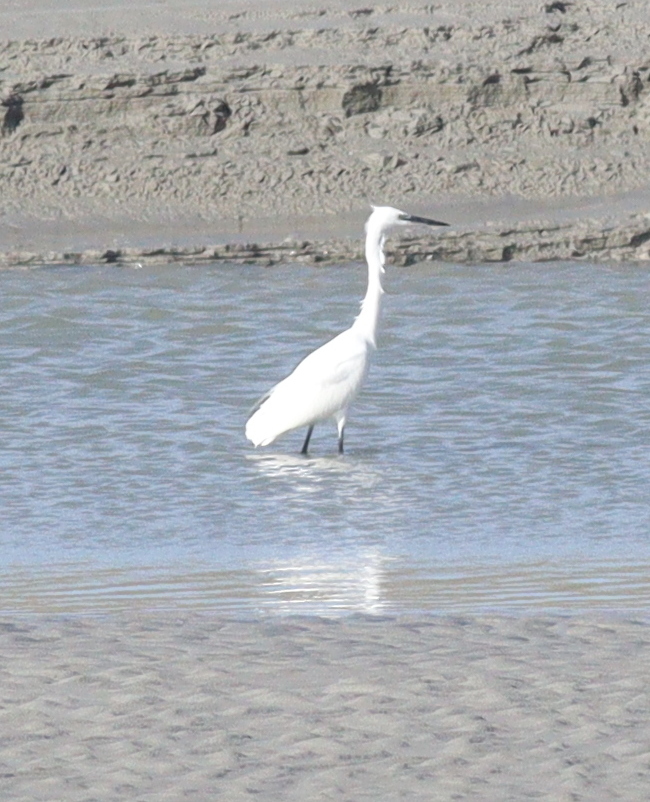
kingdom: Animalia
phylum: Chordata
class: Aves
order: Pelecaniformes
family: Ardeidae
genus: Egretta
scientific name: Egretta garzetta
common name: Little egret
